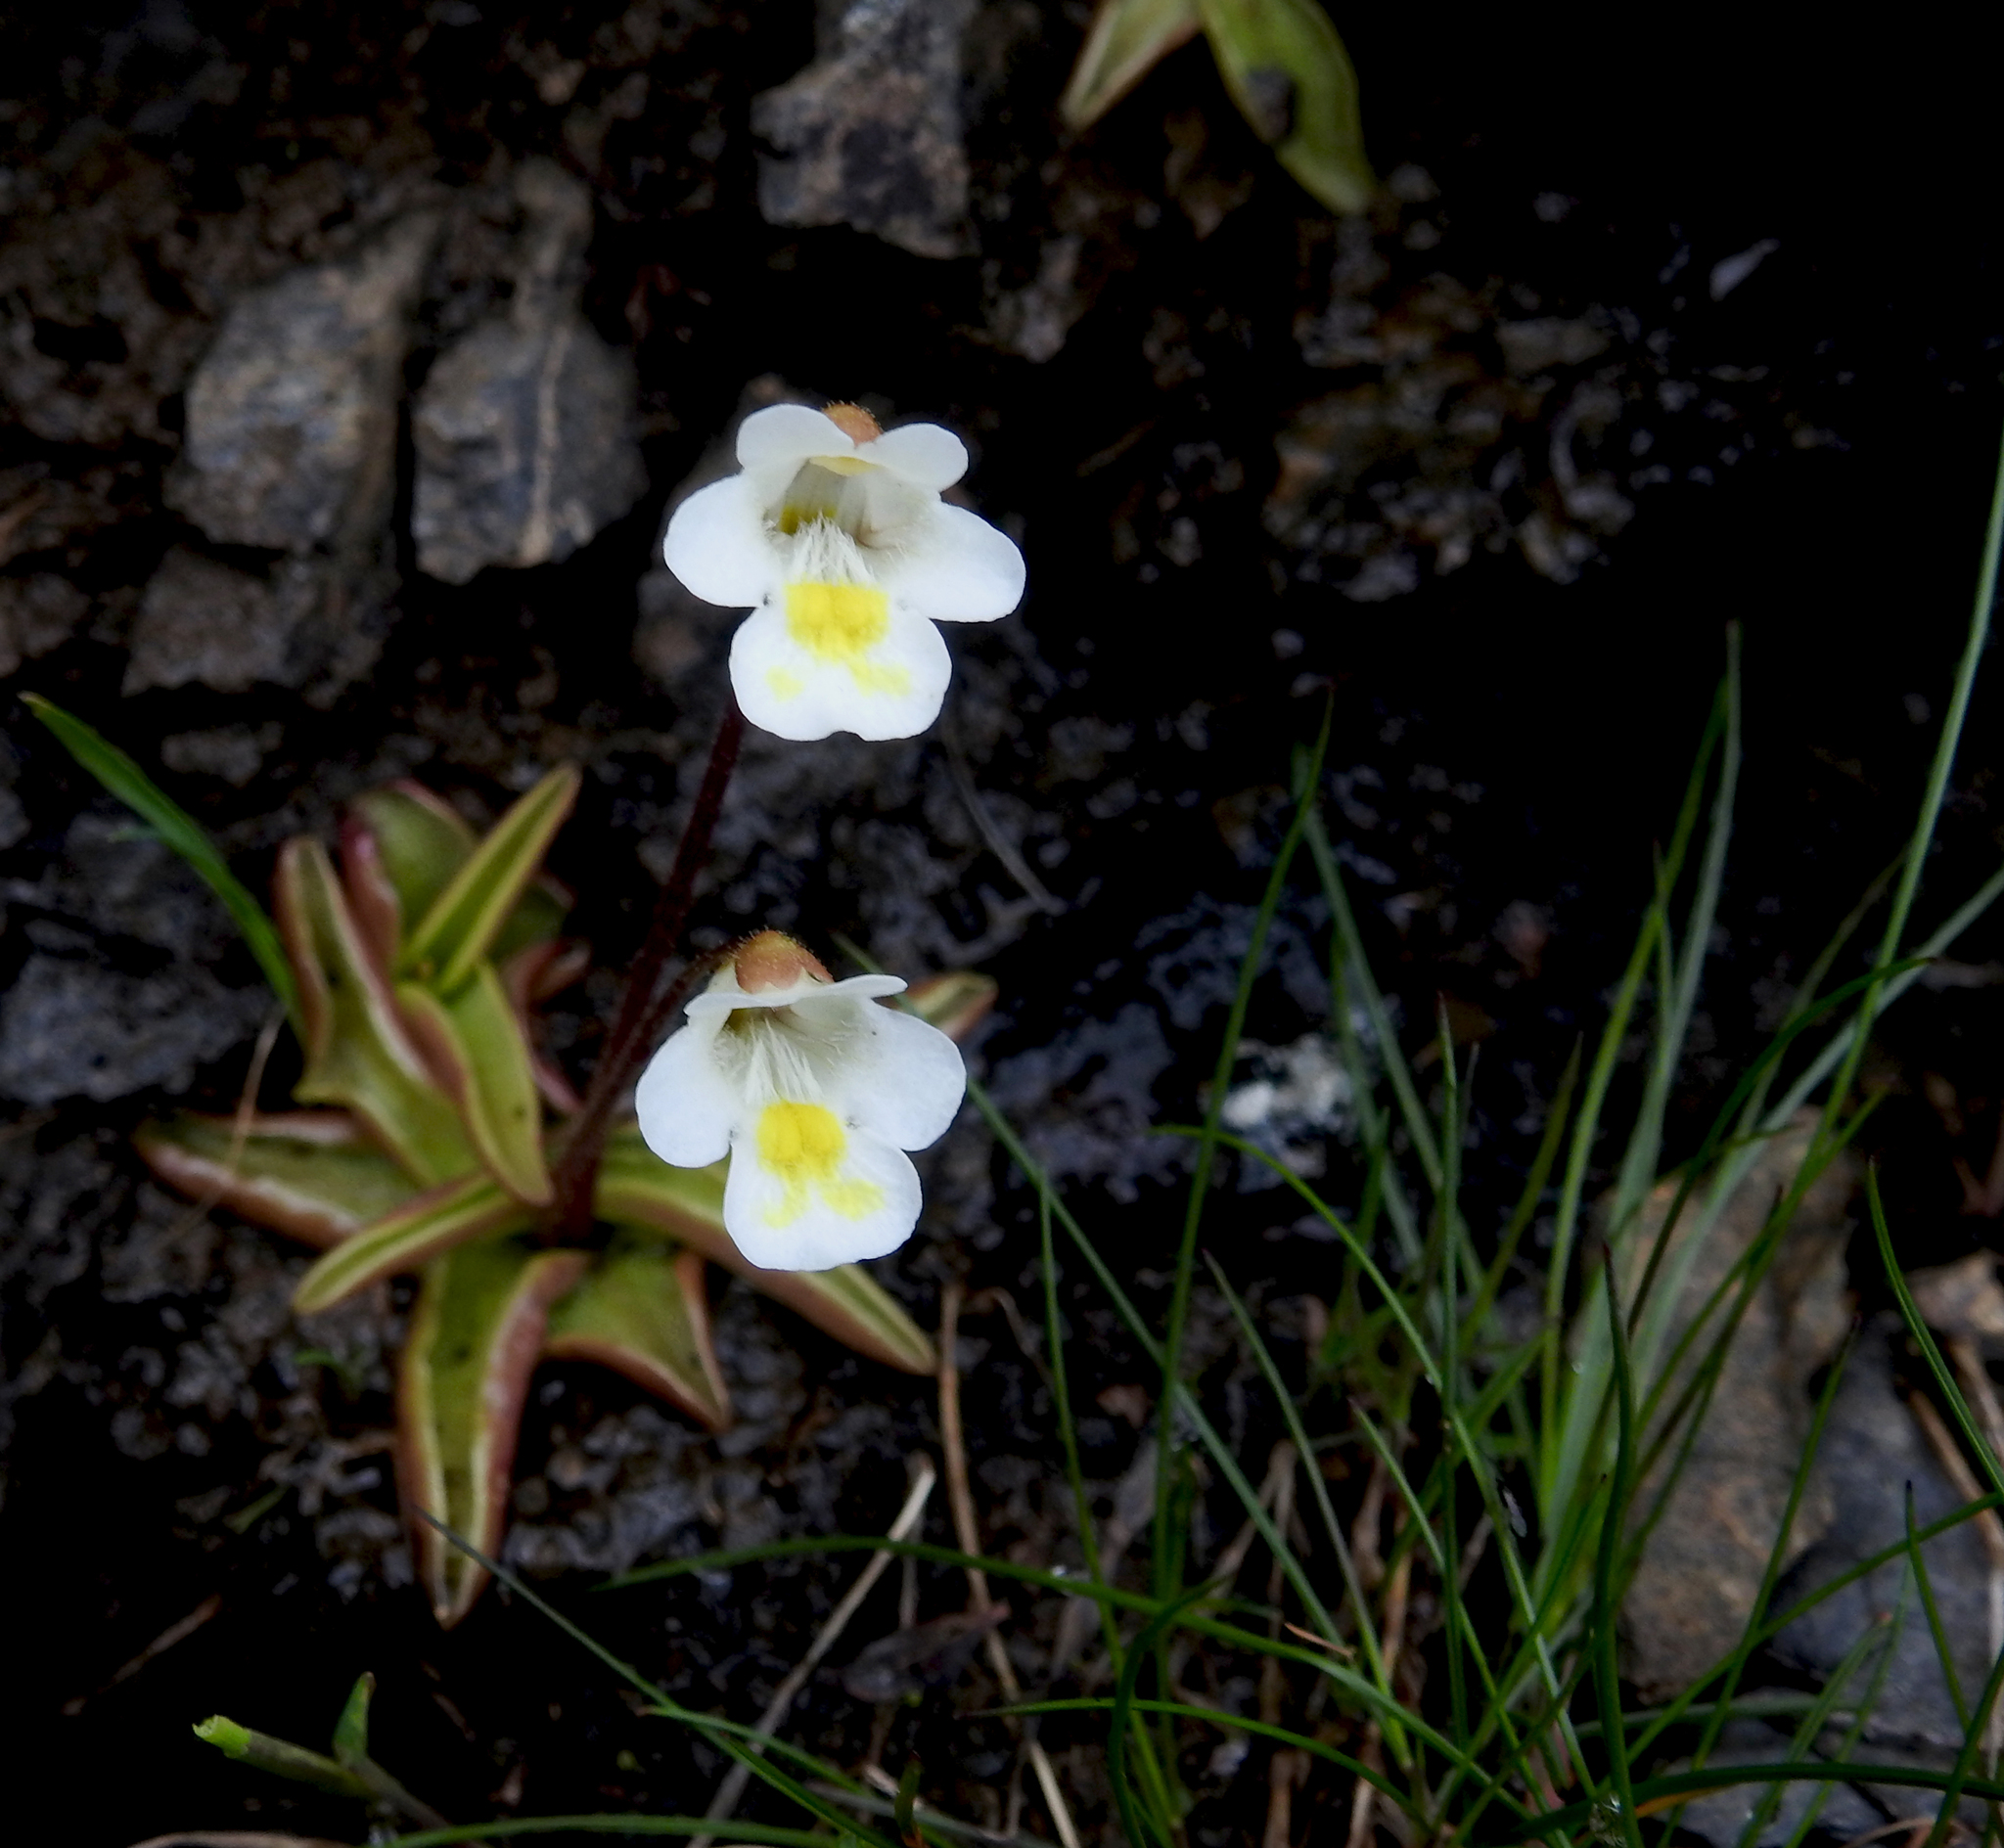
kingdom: Plantae
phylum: Tracheophyta
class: Magnoliopsida
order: Lamiales
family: Lentibulariaceae
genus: Pinguicula
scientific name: Pinguicula alpina
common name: Alpine butterwort
